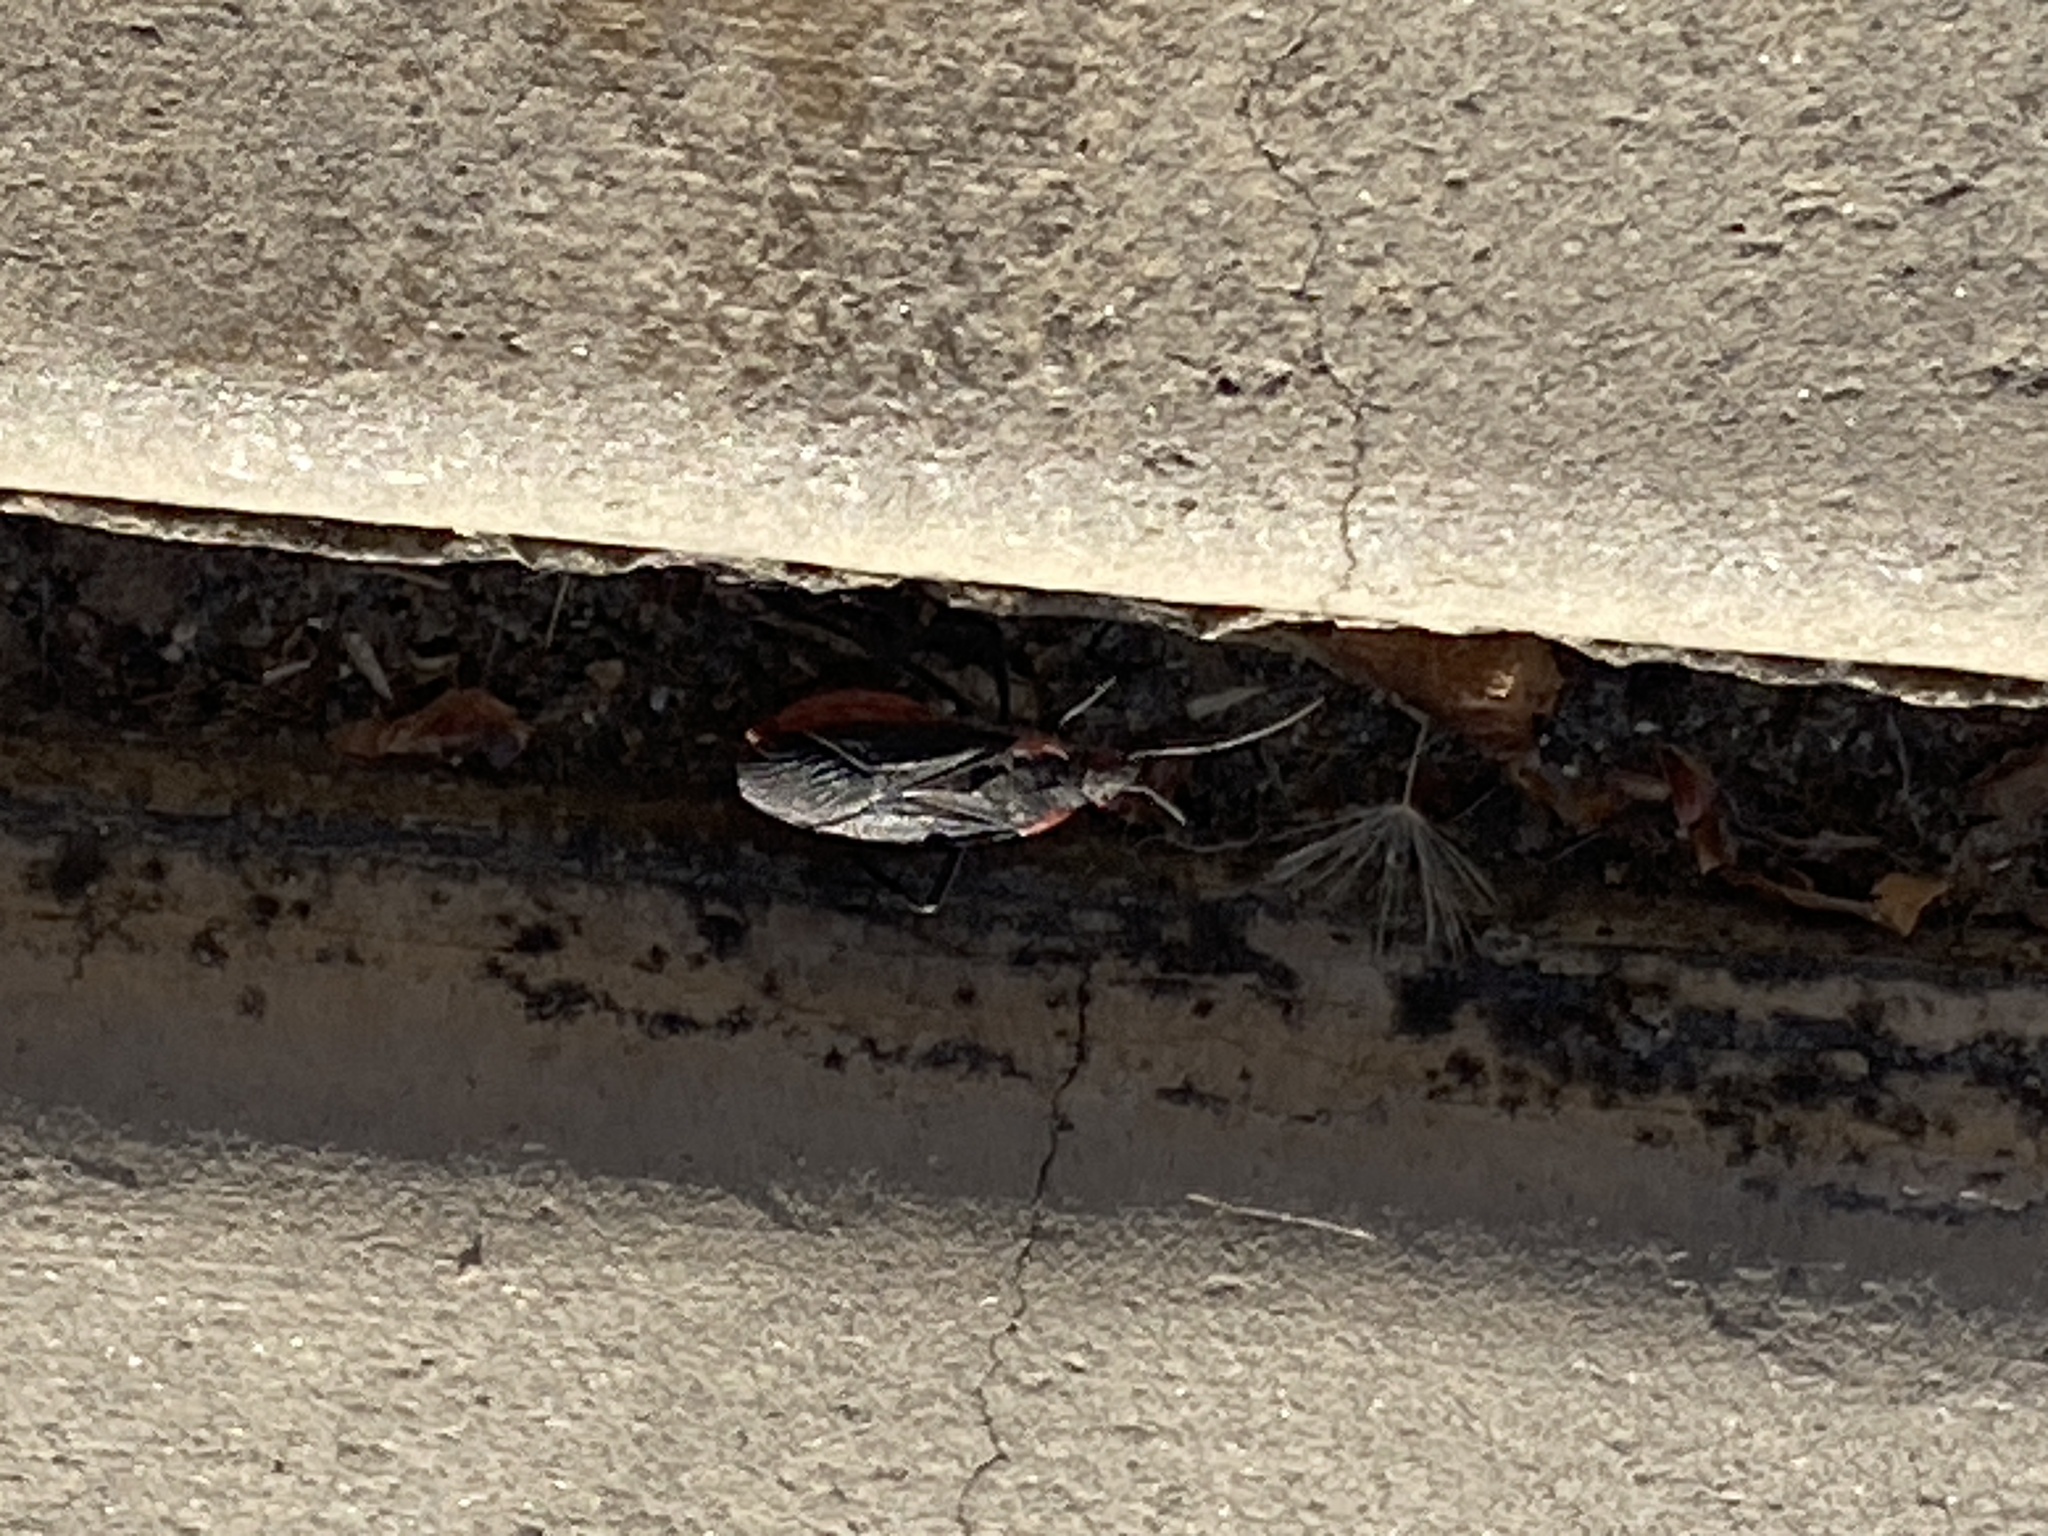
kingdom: Animalia
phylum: Arthropoda
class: Insecta
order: Hemiptera
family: Rhopalidae
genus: Jadera
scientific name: Jadera haematoloma
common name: Red-shouldered bug
